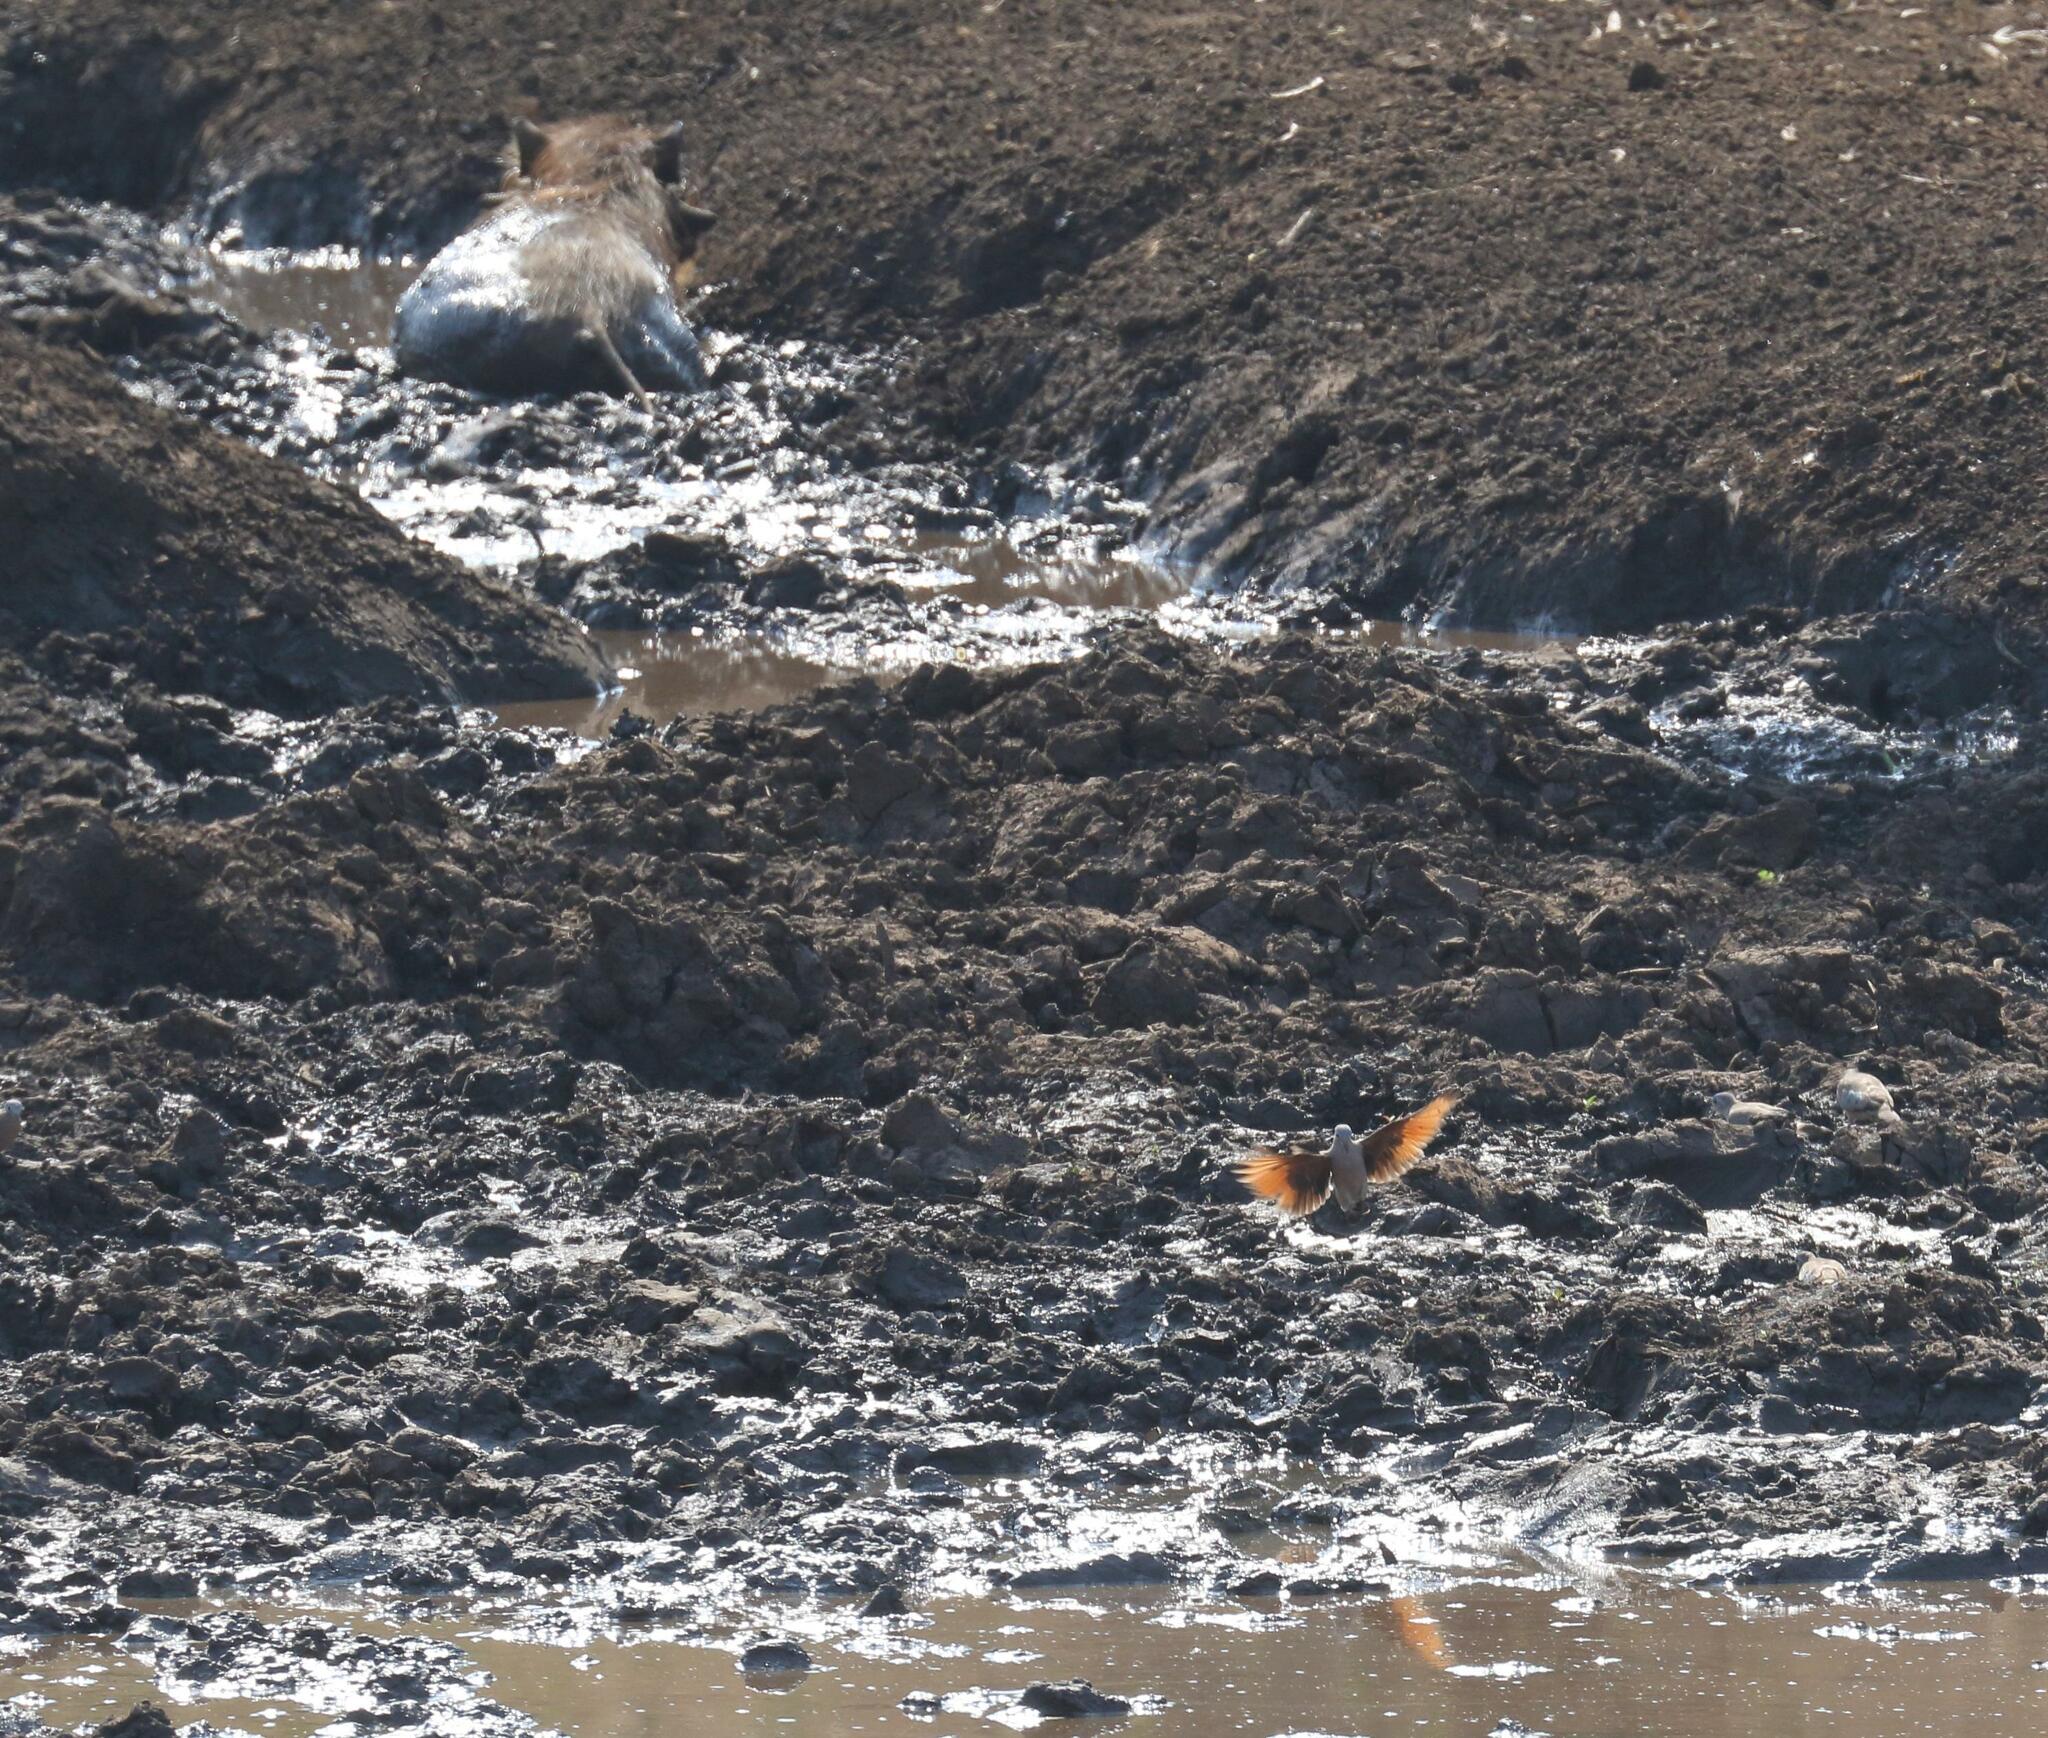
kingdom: Animalia
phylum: Chordata
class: Aves
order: Columbiformes
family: Columbidae
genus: Turtur
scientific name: Turtur chalcospilos
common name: Emerald-spotted wood dove
